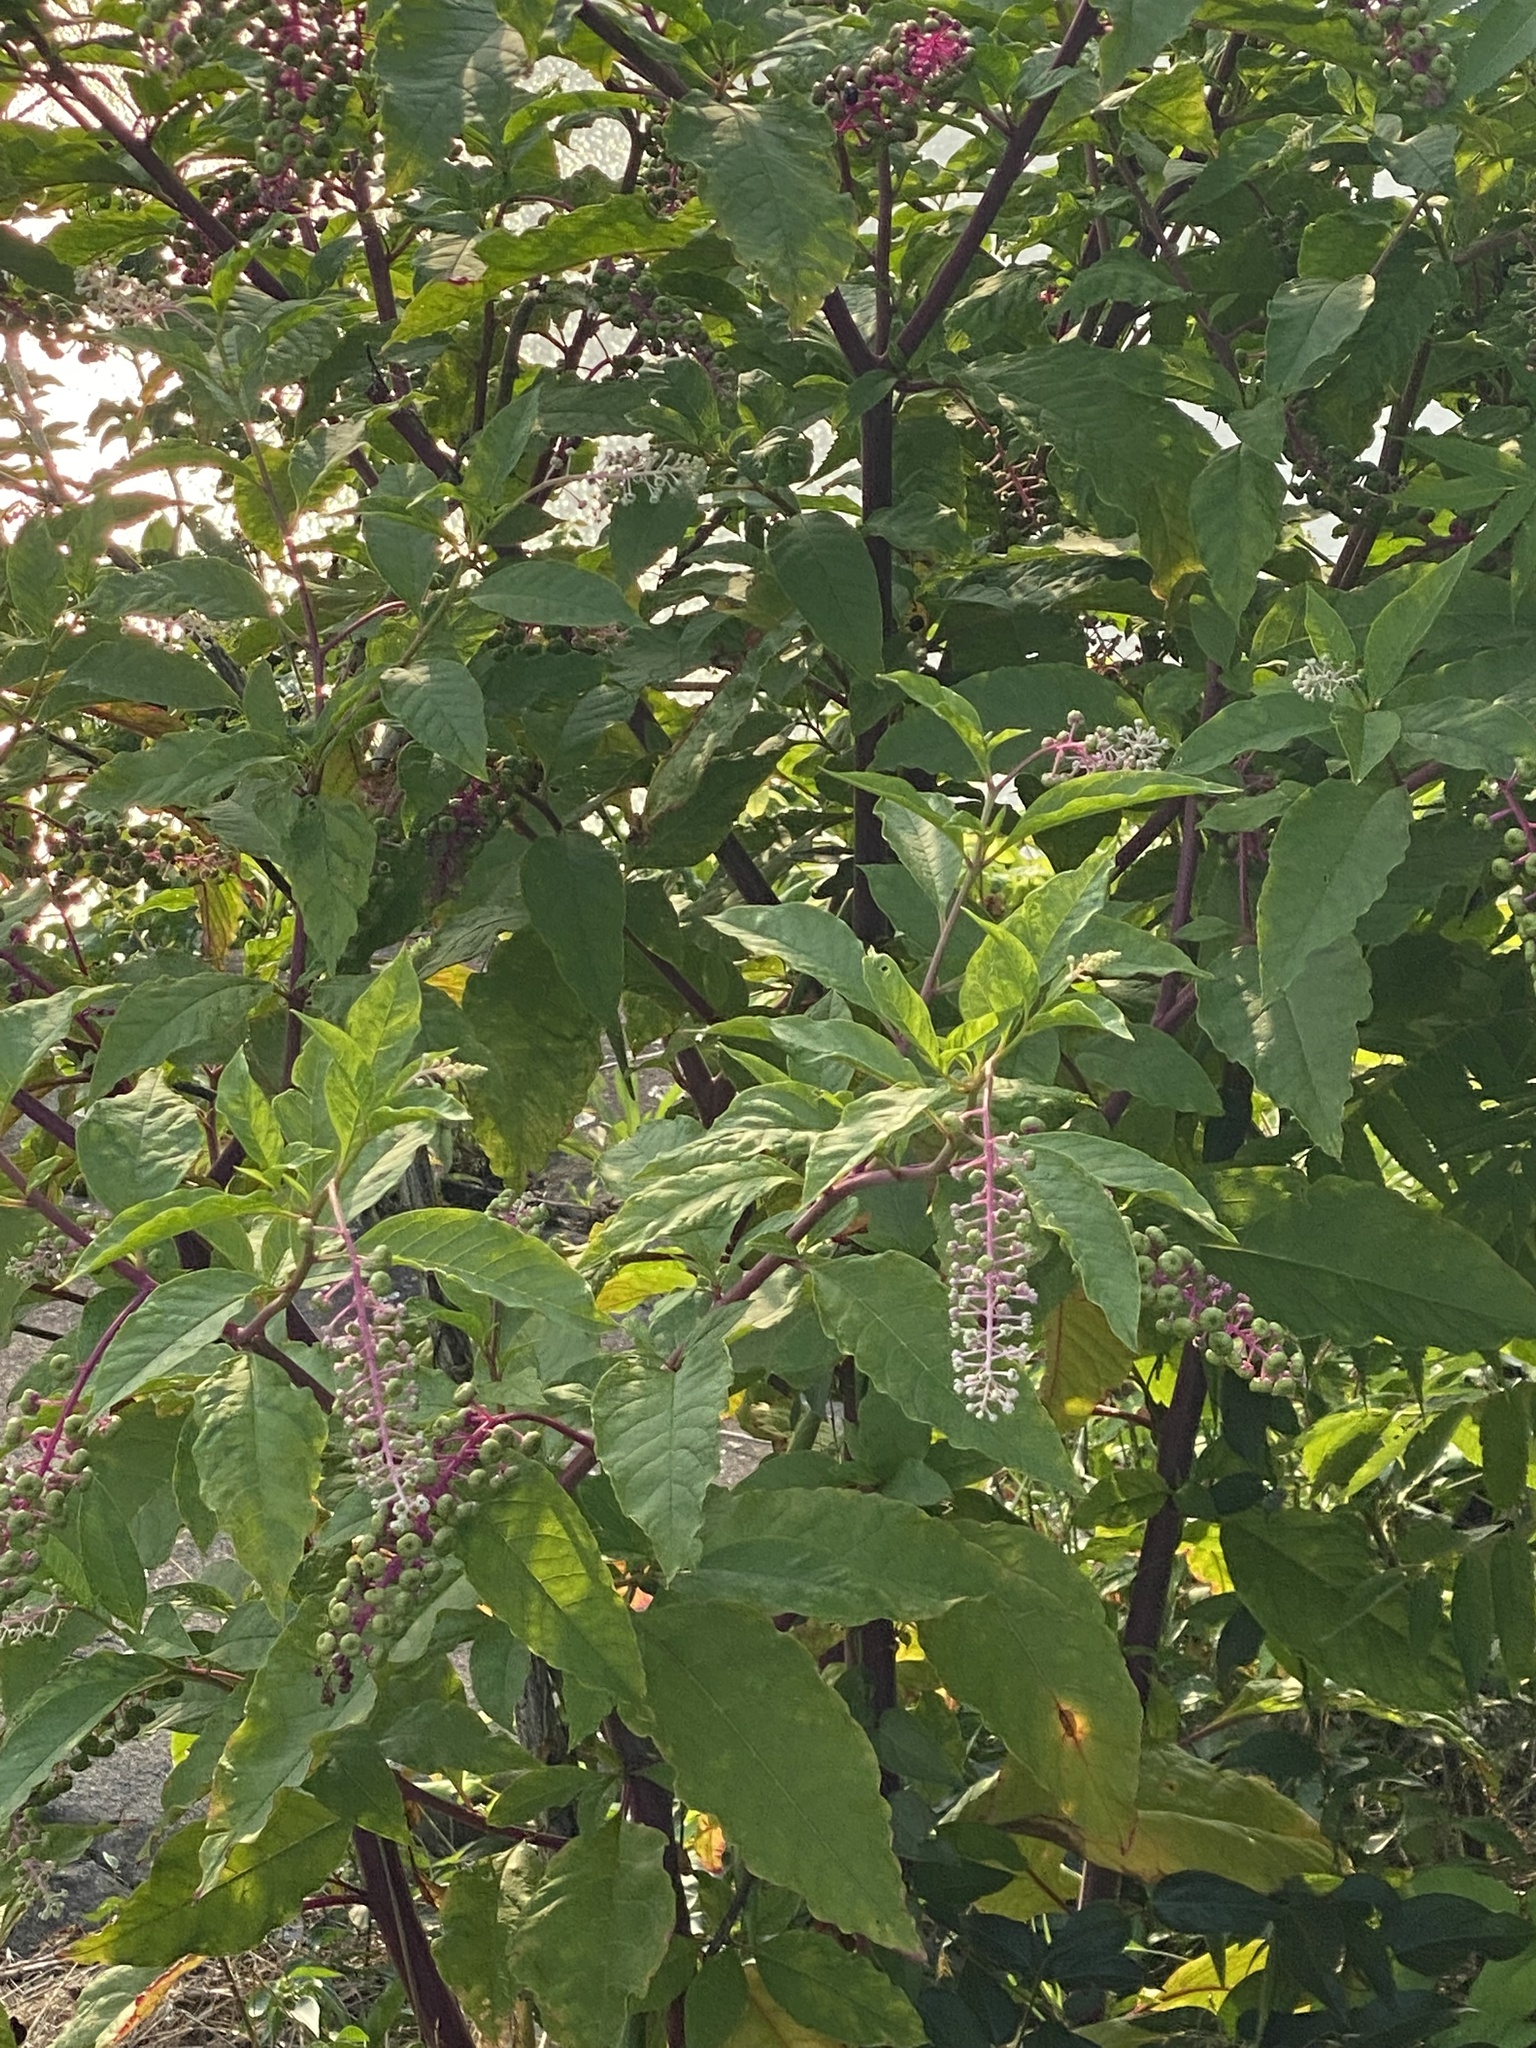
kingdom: Plantae
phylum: Tracheophyta
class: Magnoliopsida
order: Caryophyllales
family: Phytolaccaceae
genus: Phytolacca
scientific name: Phytolacca americana
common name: American pokeweed
